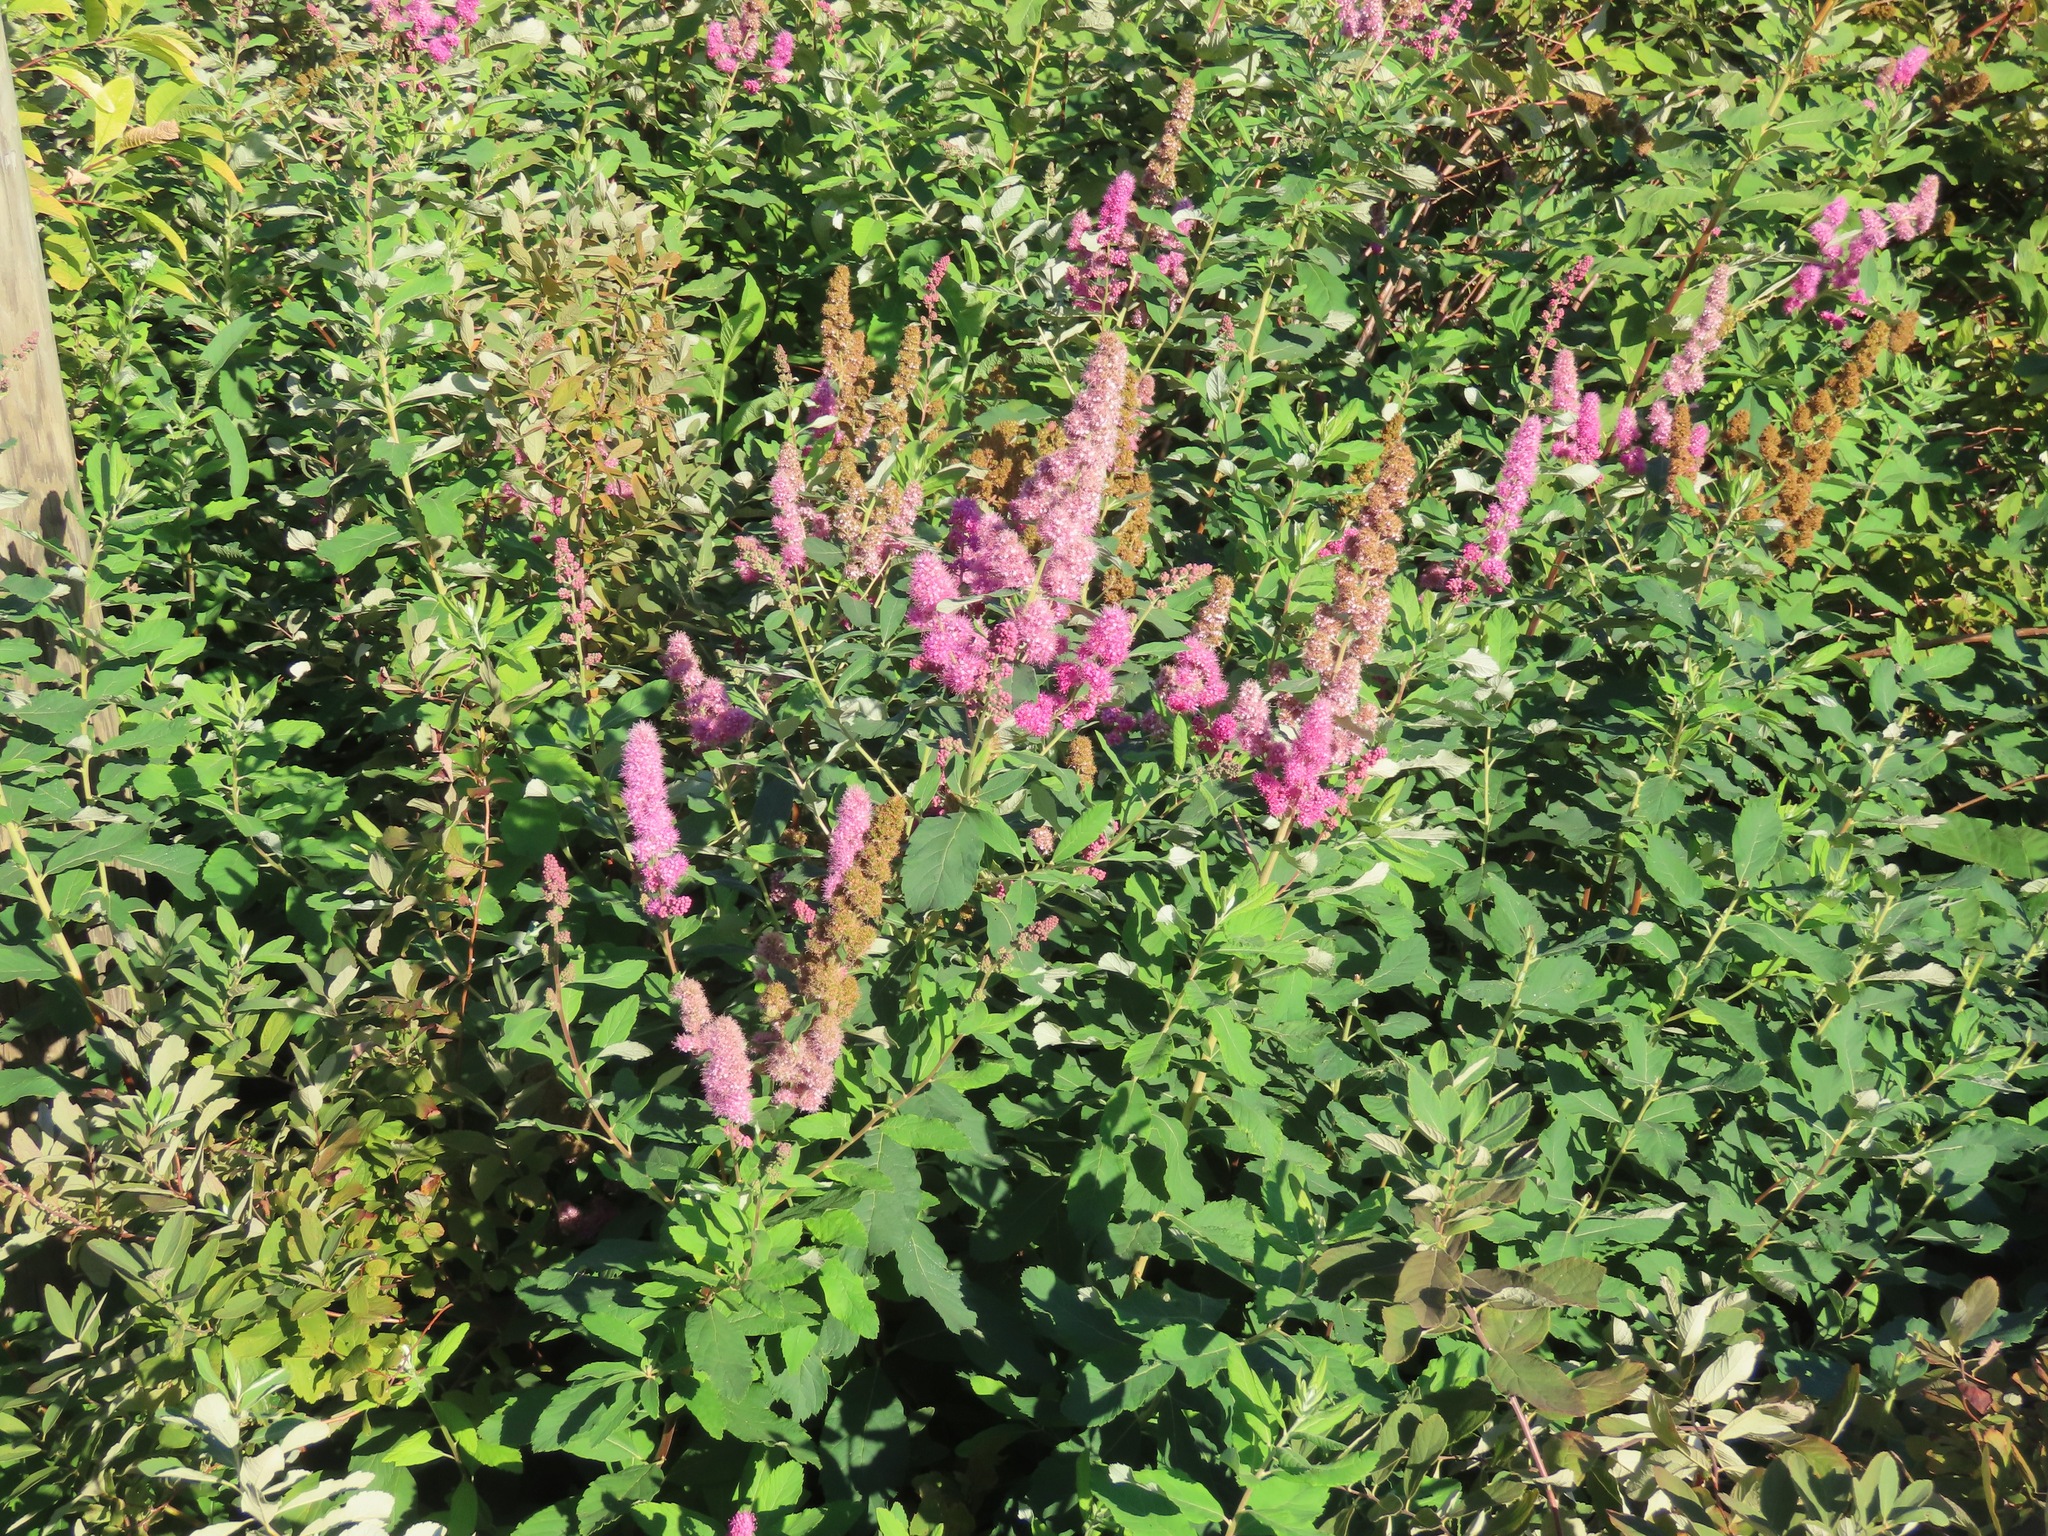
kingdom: Plantae
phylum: Tracheophyta
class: Magnoliopsida
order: Rosales
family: Rosaceae
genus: Spiraea
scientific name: Spiraea douglasii
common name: Steeplebush
